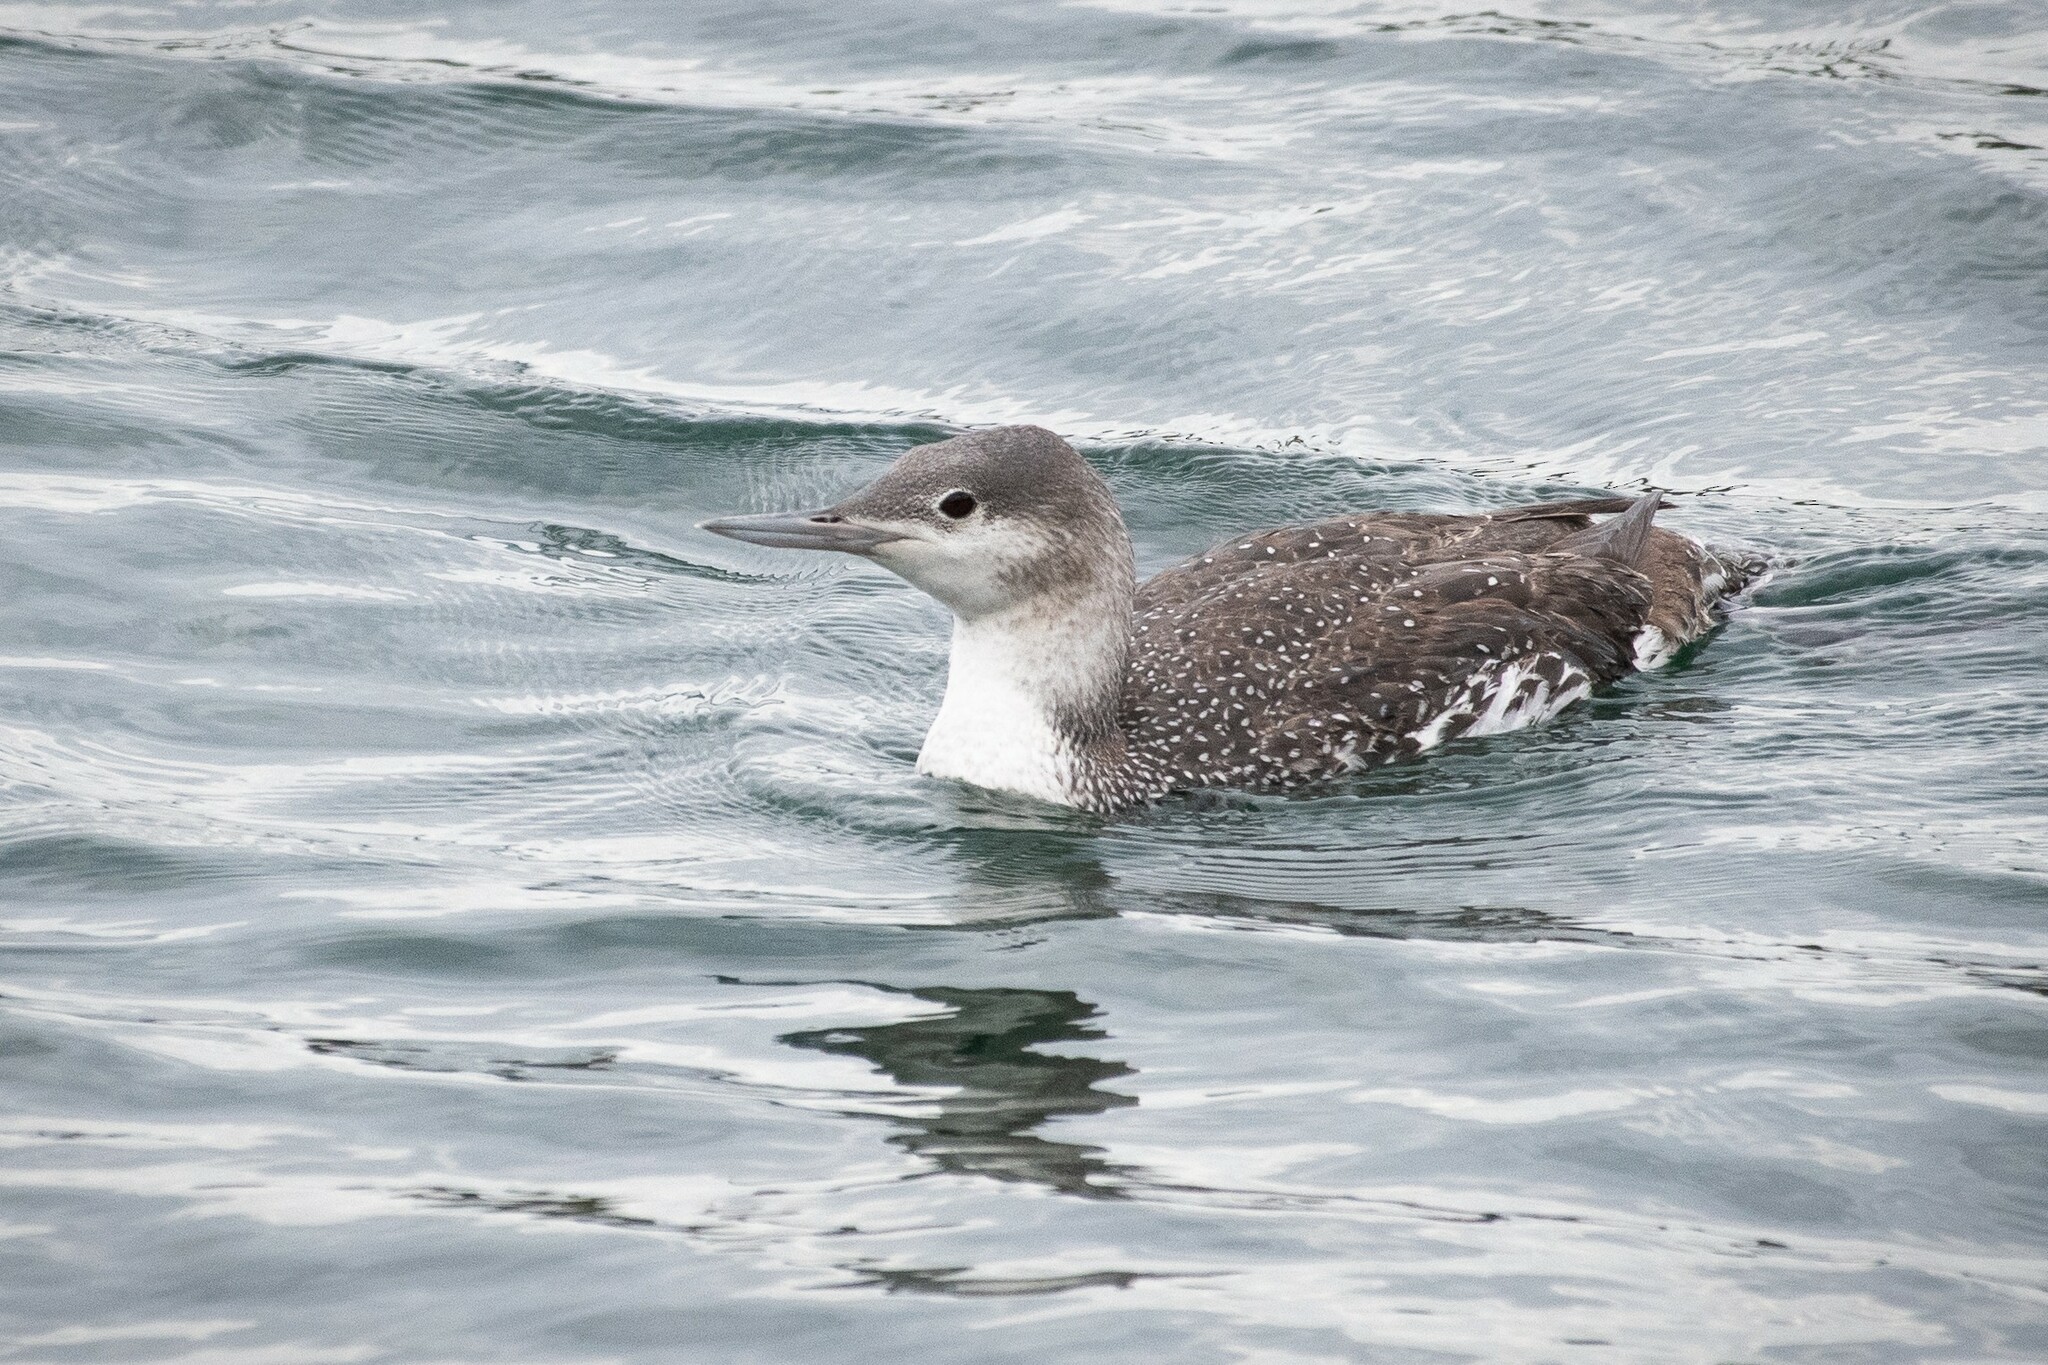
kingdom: Animalia
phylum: Chordata
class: Aves
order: Gaviiformes
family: Gaviidae
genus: Gavia
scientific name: Gavia stellata
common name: Red-throated loon
